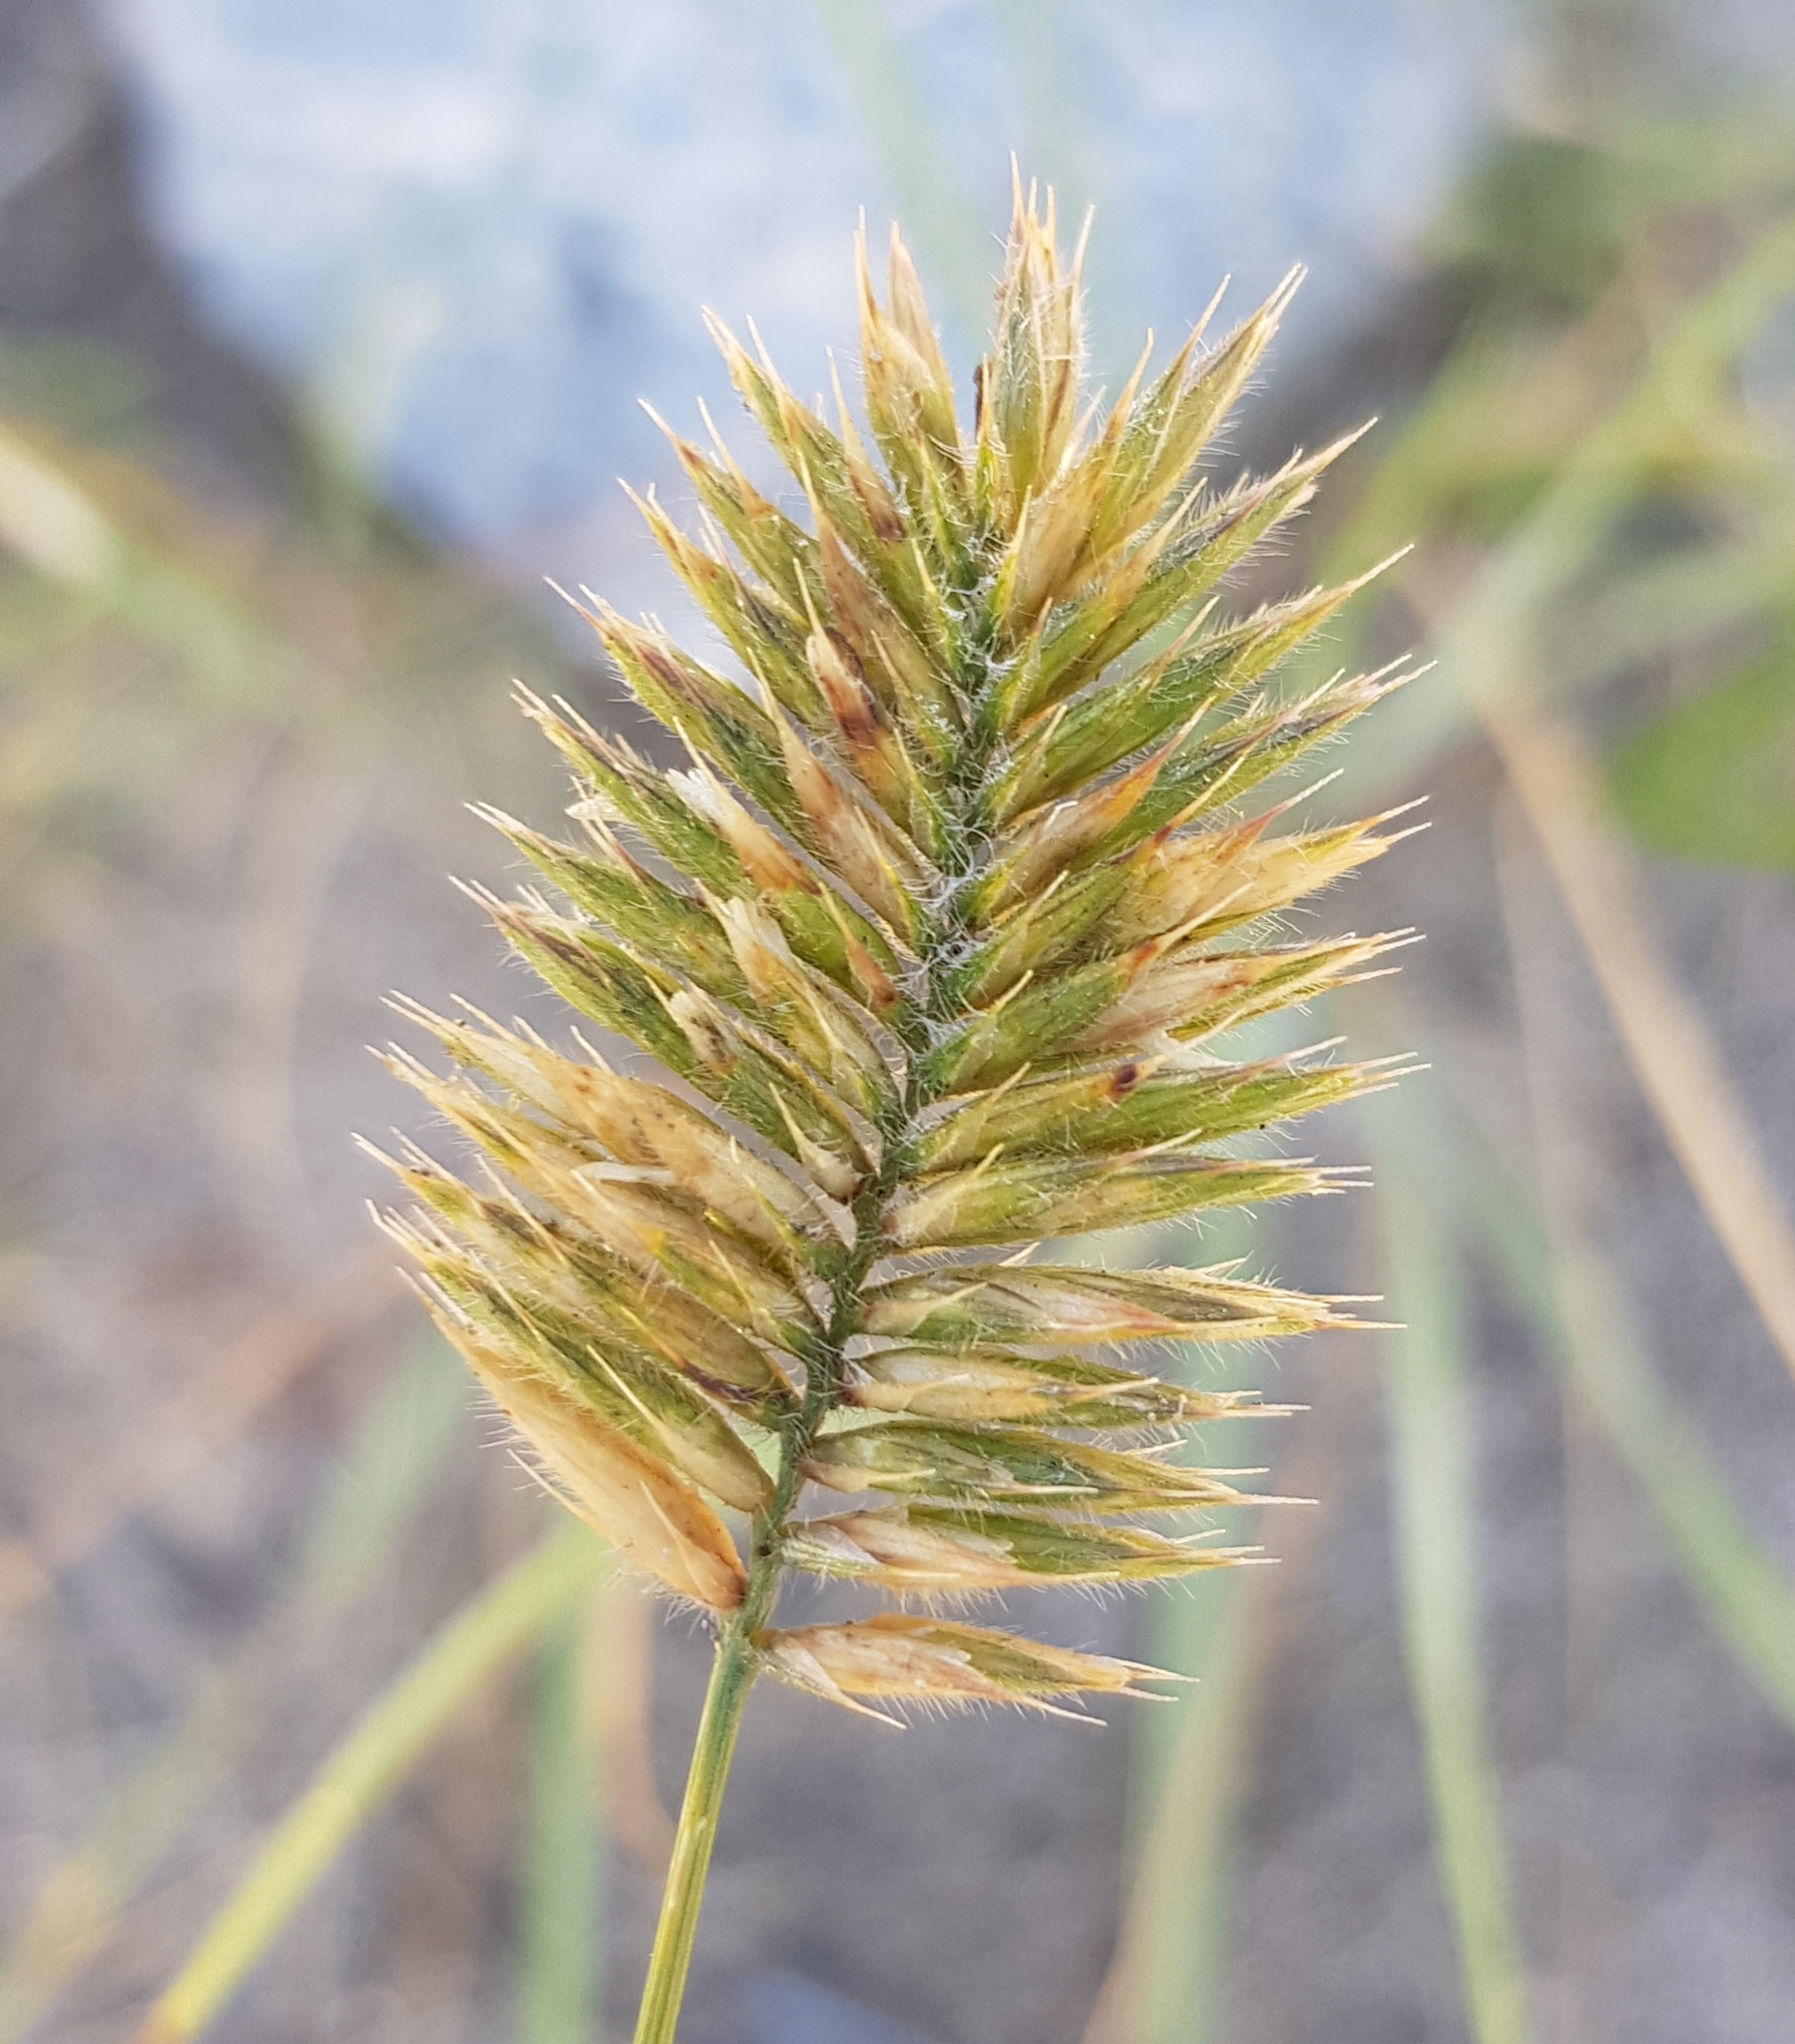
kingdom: Plantae
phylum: Tracheophyta
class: Liliopsida
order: Poales
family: Poaceae
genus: Agropyron
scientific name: Agropyron cristatum
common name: Crested wheatgrass
